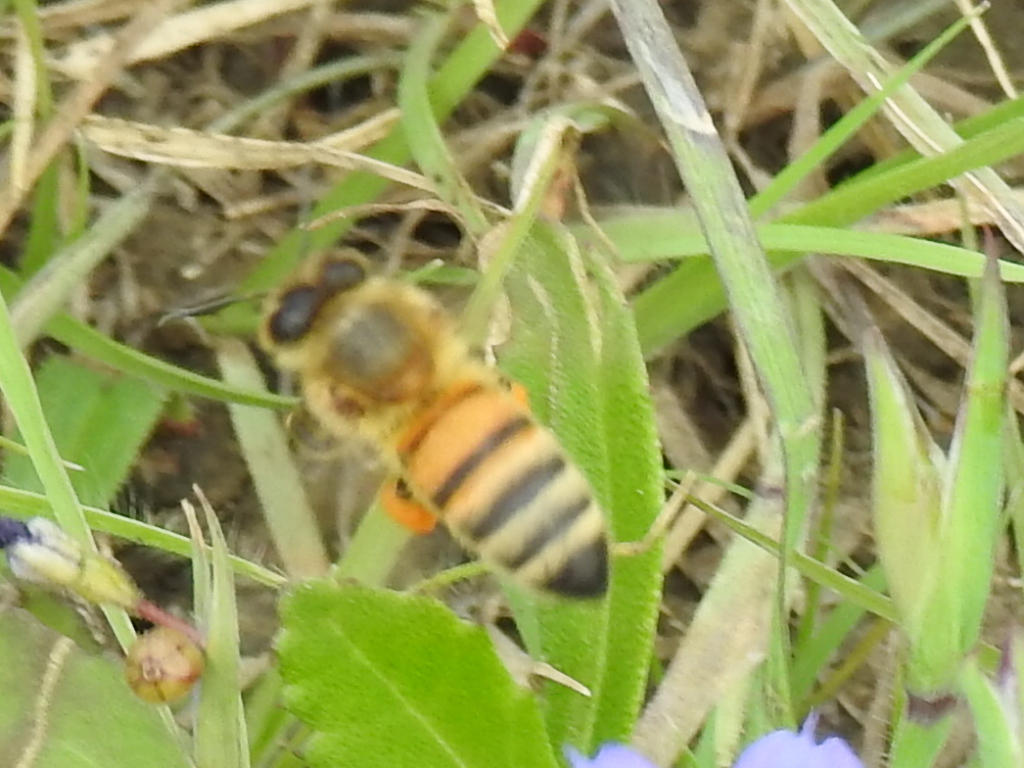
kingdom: Animalia
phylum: Arthropoda
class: Insecta
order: Hymenoptera
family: Apidae
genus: Apis
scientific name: Apis mellifera
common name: Honey bee
